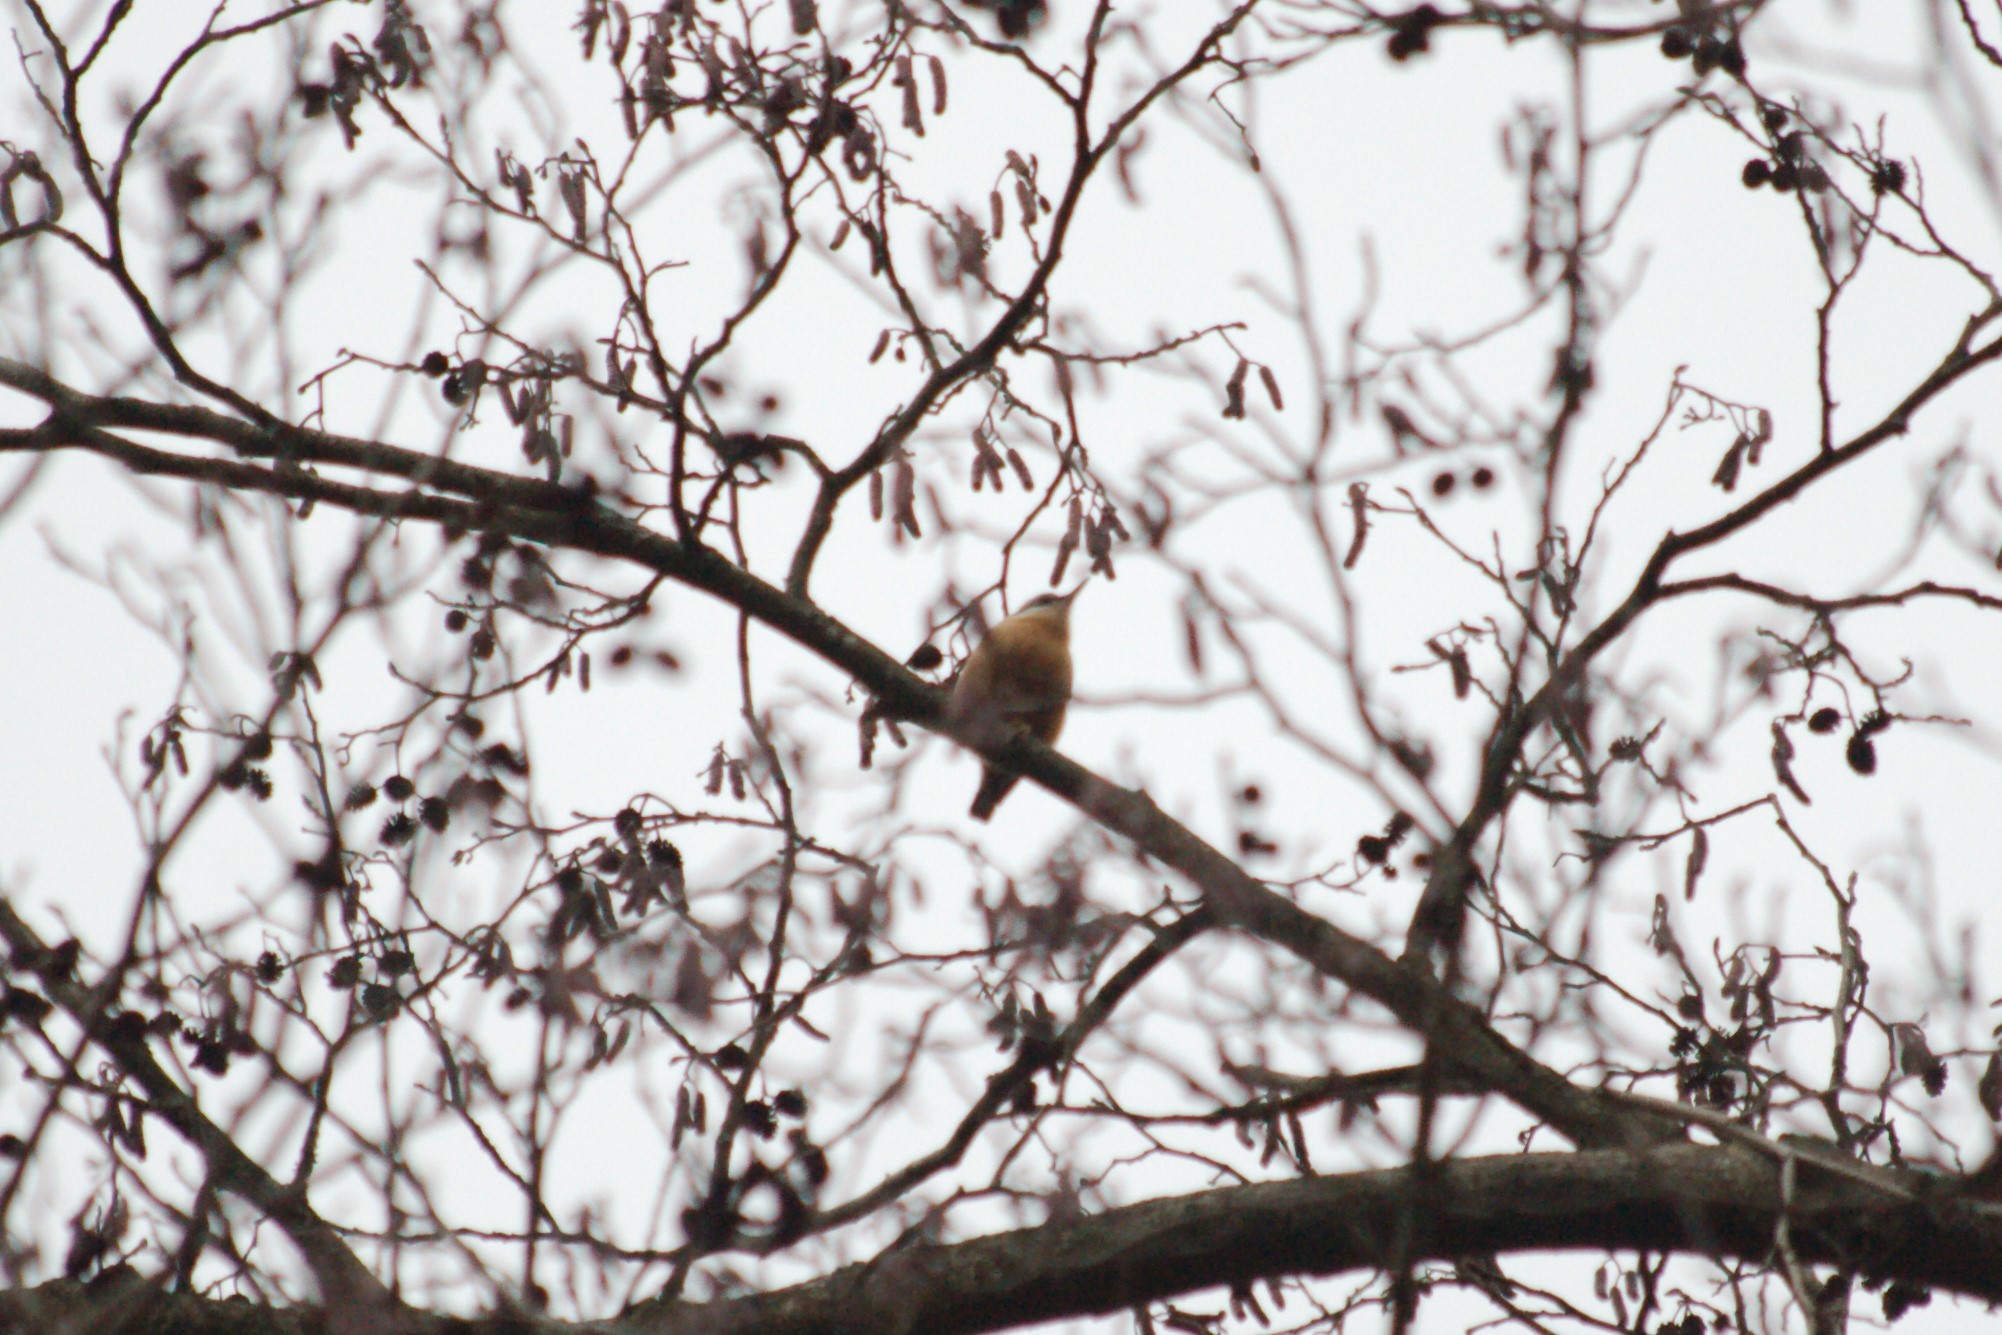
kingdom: Animalia
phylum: Chordata
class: Aves
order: Passeriformes
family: Sittidae
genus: Sitta
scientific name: Sitta europaea
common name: Eurasian nuthatch
